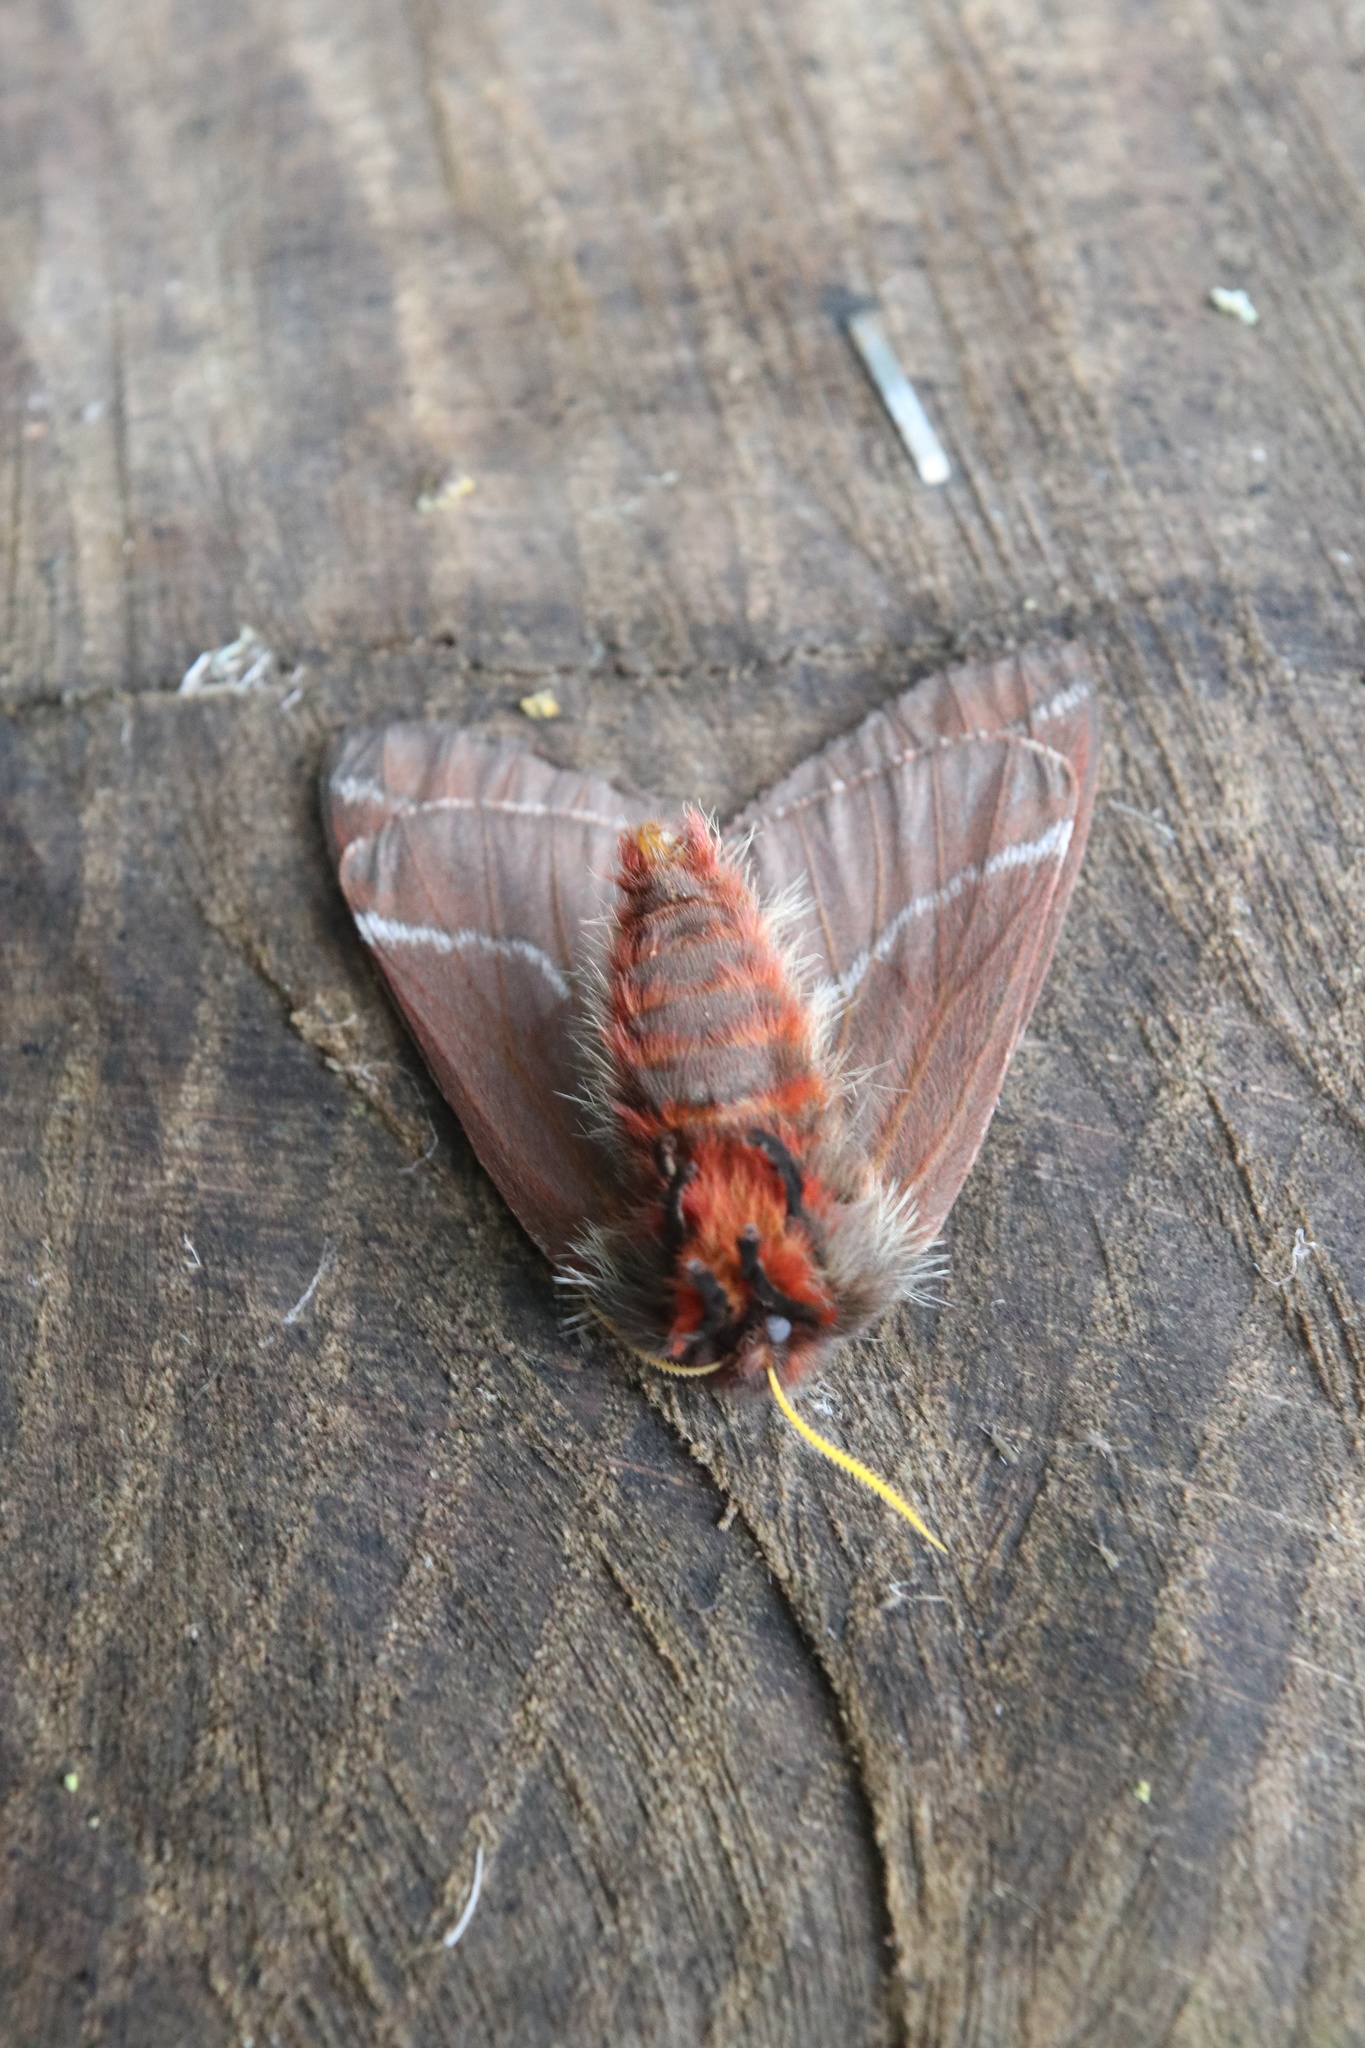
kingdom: Animalia
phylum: Arthropoda
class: Insecta
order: Lepidoptera
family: Saturniidae
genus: Ormiscodes
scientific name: Ormiscodes joiceyi
